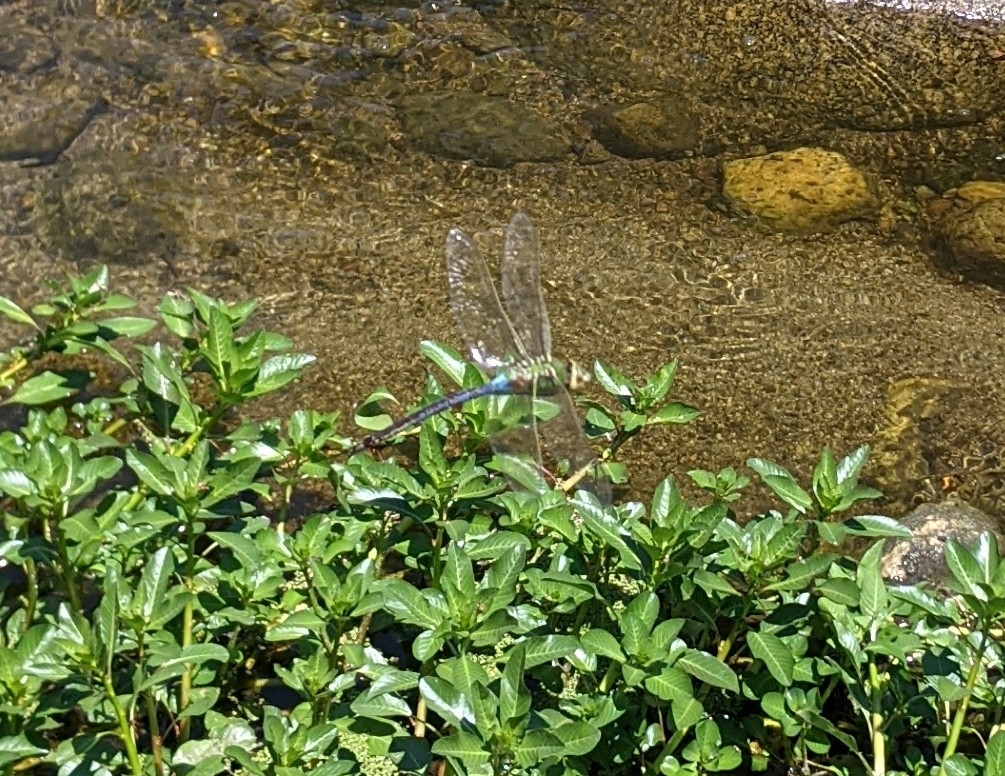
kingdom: Animalia
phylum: Arthropoda
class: Insecta
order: Odonata
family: Aeshnidae
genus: Anax
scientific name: Anax junius
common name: Common green darner
